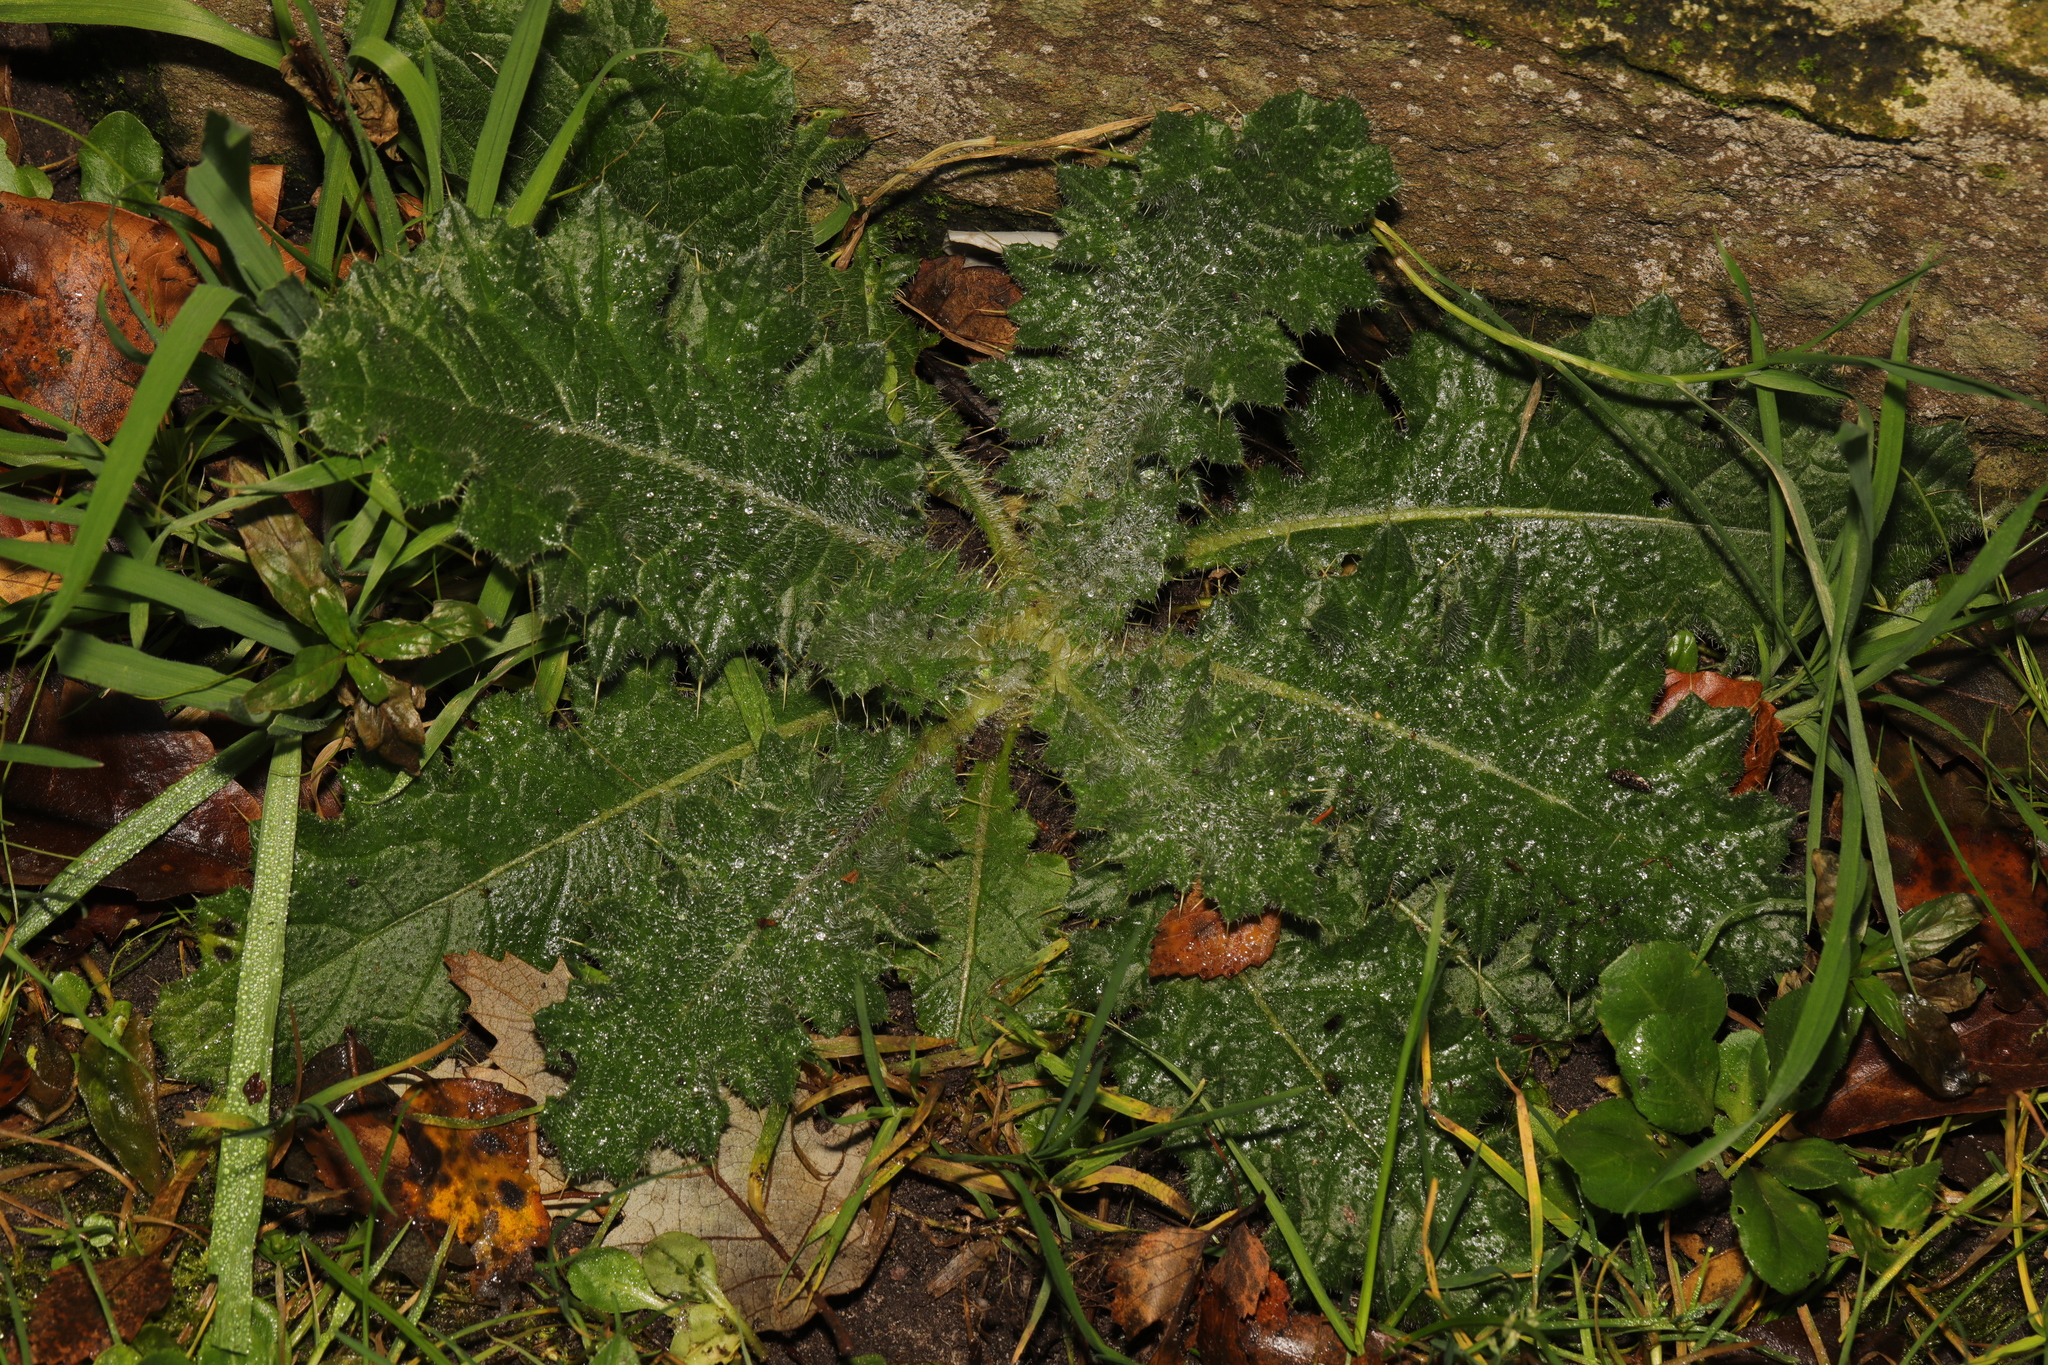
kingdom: Plantae
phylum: Tracheophyta
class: Magnoliopsida
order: Asterales
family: Asteraceae
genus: Cirsium
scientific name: Cirsium vulgare
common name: Bull thistle
